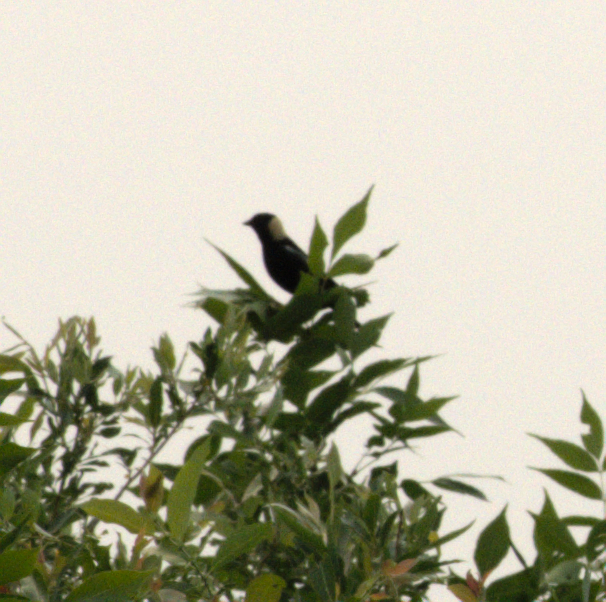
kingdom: Animalia
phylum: Chordata
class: Aves
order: Passeriformes
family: Icteridae
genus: Dolichonyx
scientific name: Dolichonyx oryzivorus
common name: Bobolink
